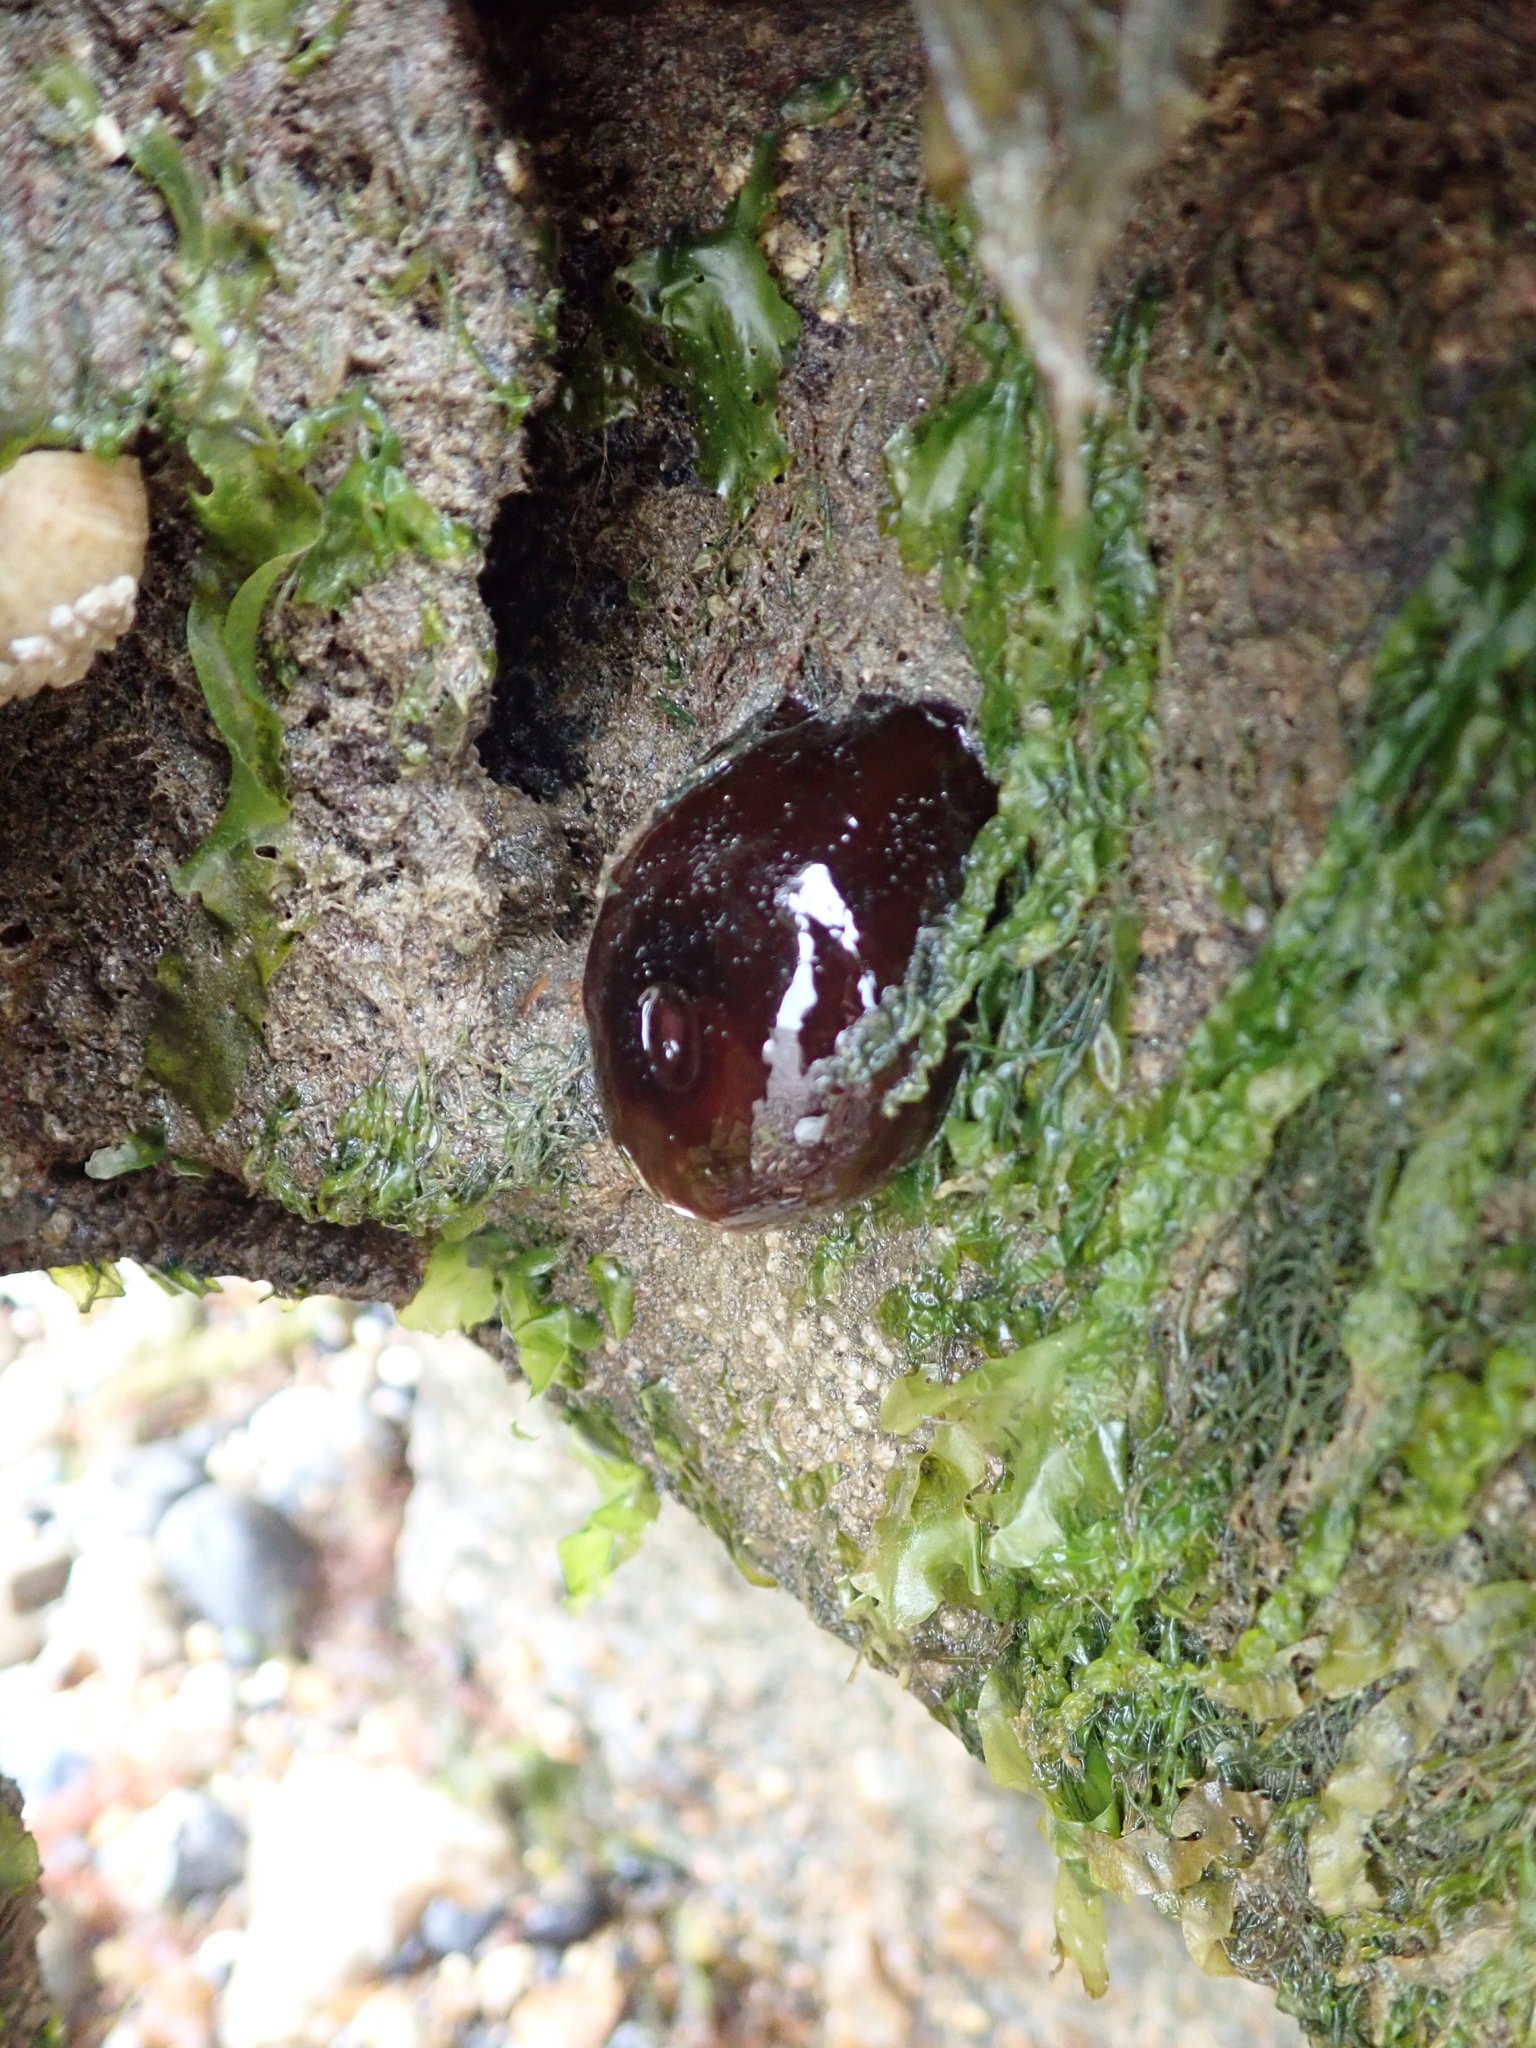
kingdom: Animalia
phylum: Cnidaria
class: Anthozoa
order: Actiniaria
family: Actiniidae
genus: Actinia
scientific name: Actinia equina
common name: Beadlet anemone
